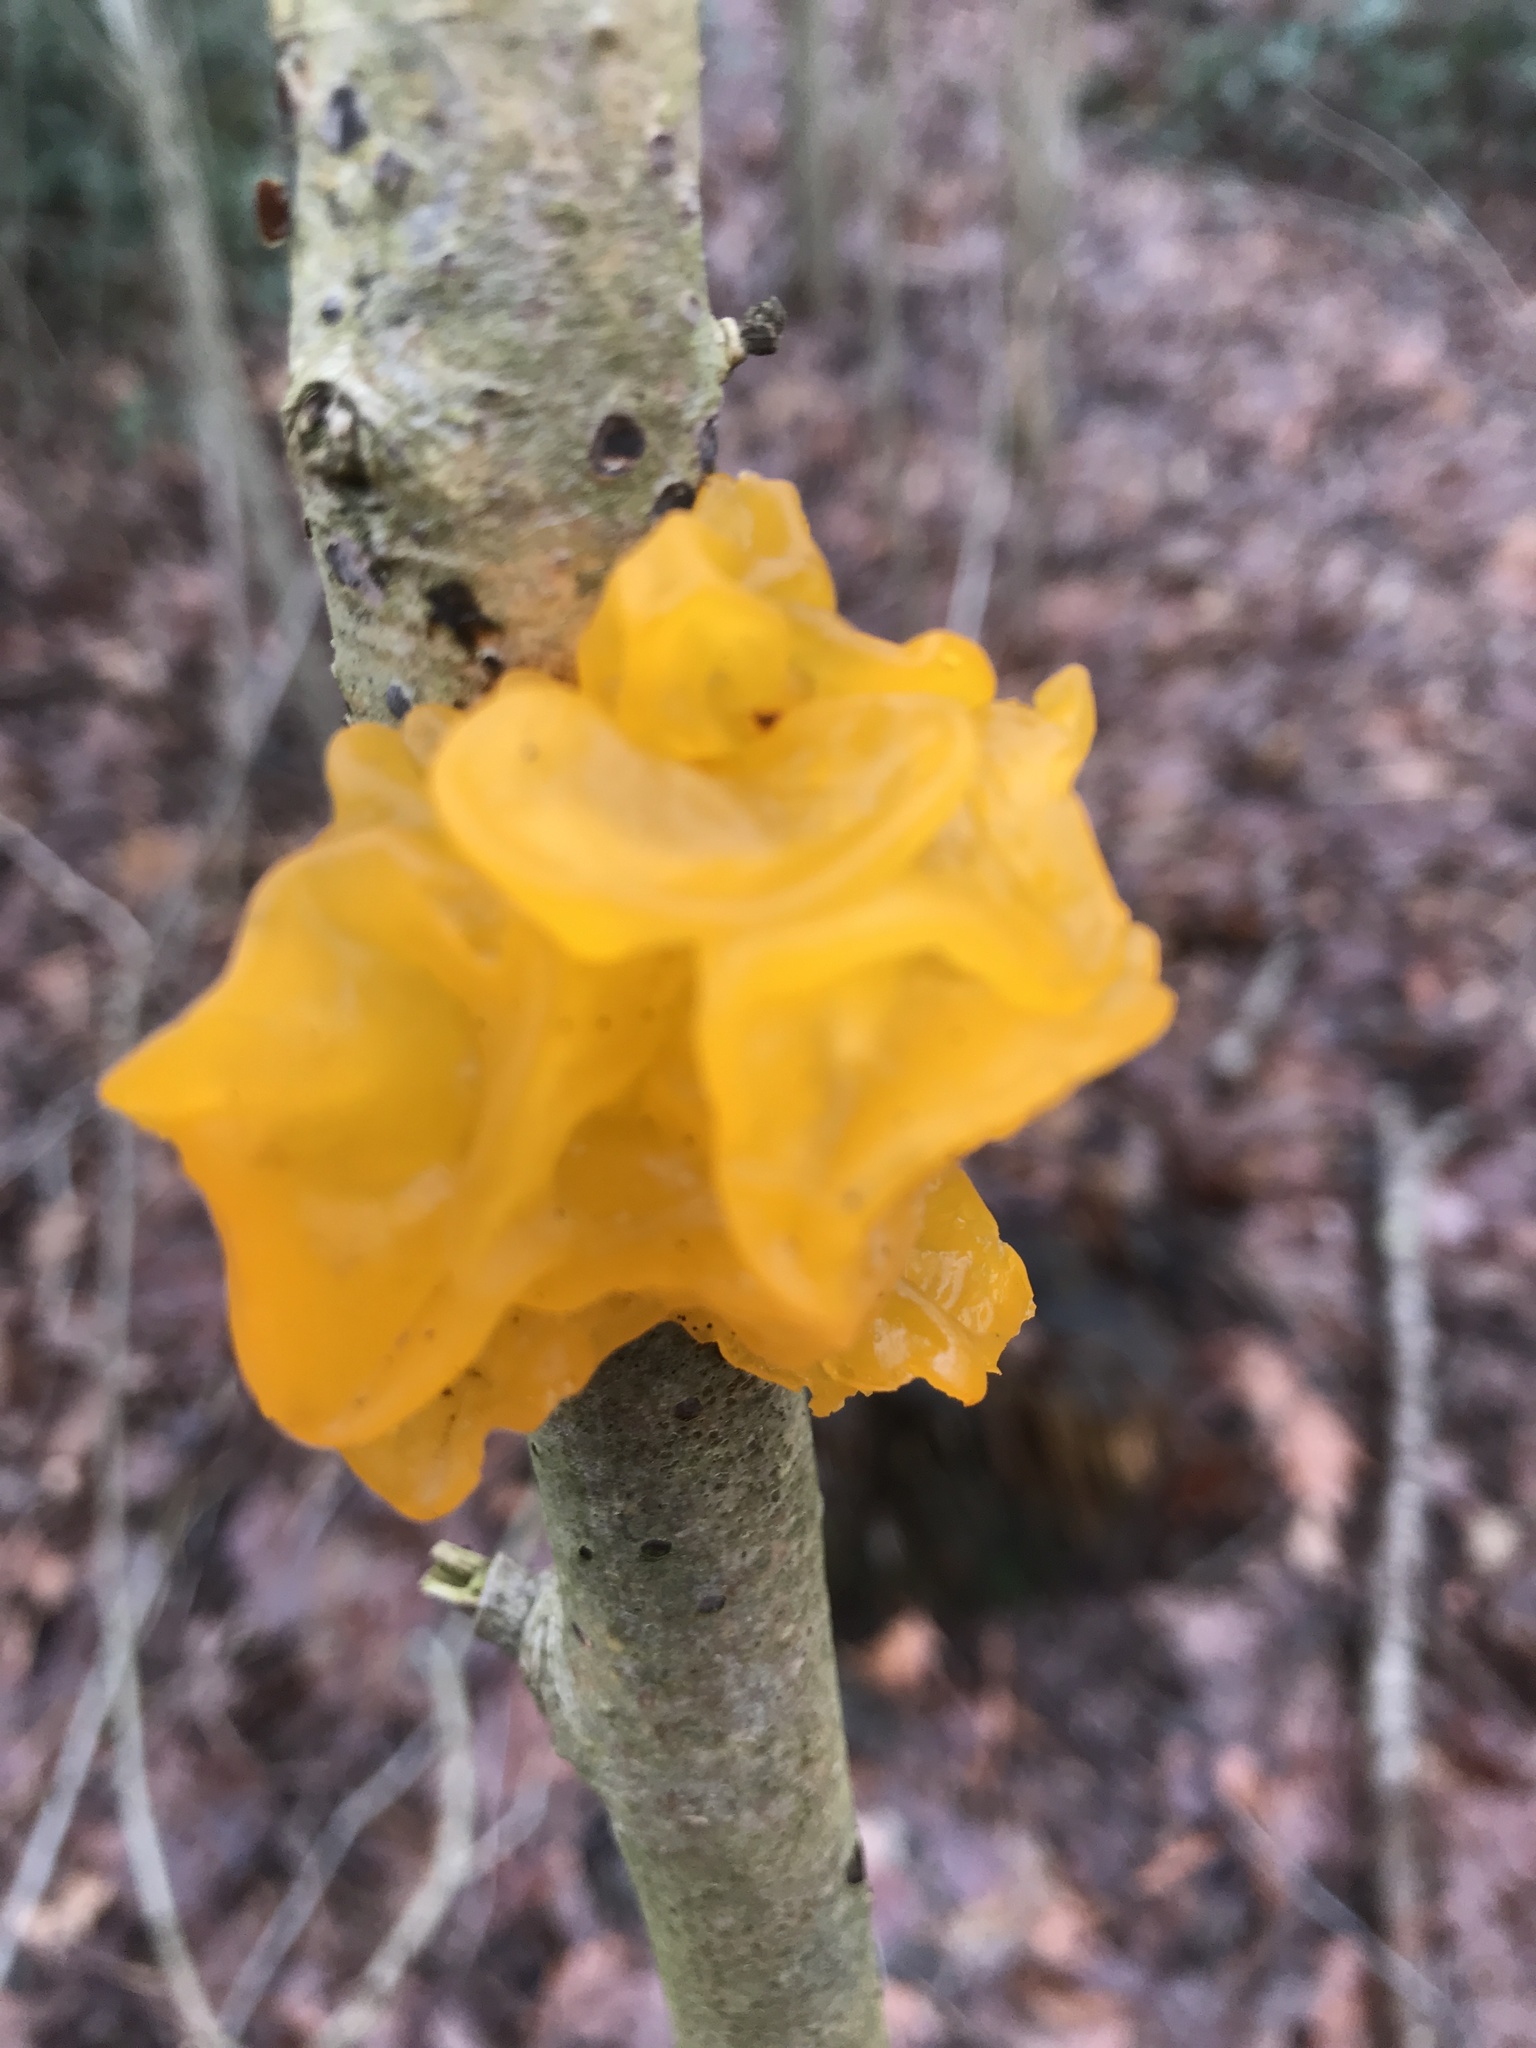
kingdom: Fungi
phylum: Basidiomycota
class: Tremellomycetes
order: Tremellales
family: Tremellaceae
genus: Tremella
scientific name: Tremella mesenterica
